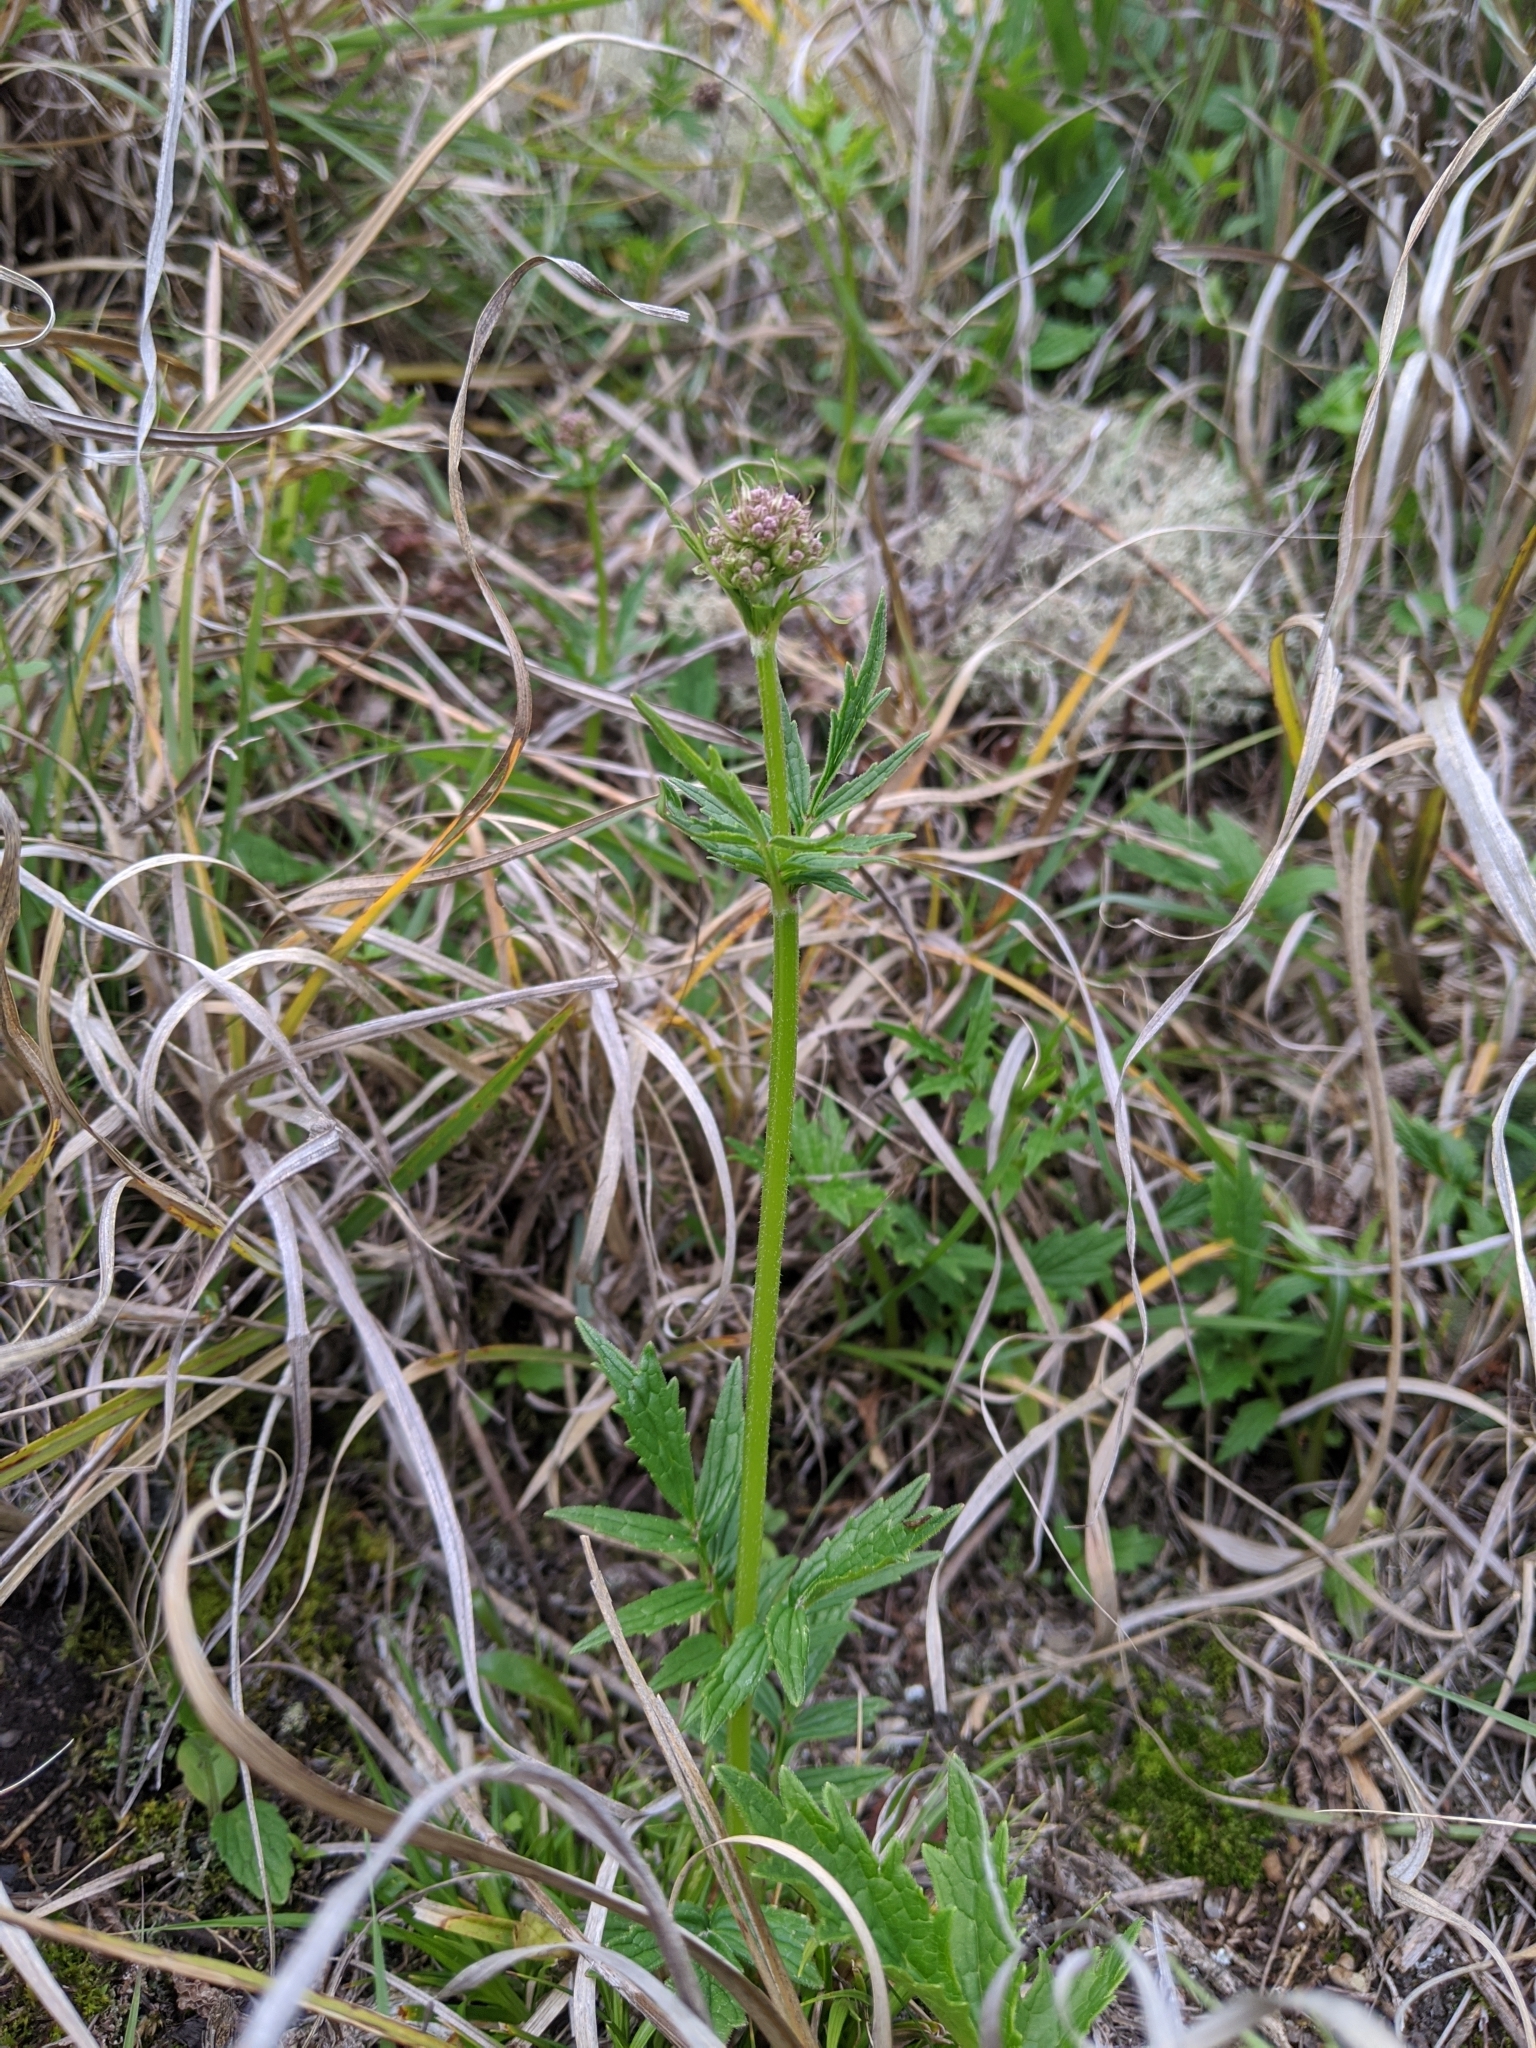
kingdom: Plantae
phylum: Tracheophyta
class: Magnoliopsida
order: Dipsacales
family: Caprifoliaceae
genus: Valeriana
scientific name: Valeriana officinalis
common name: Common valerian
